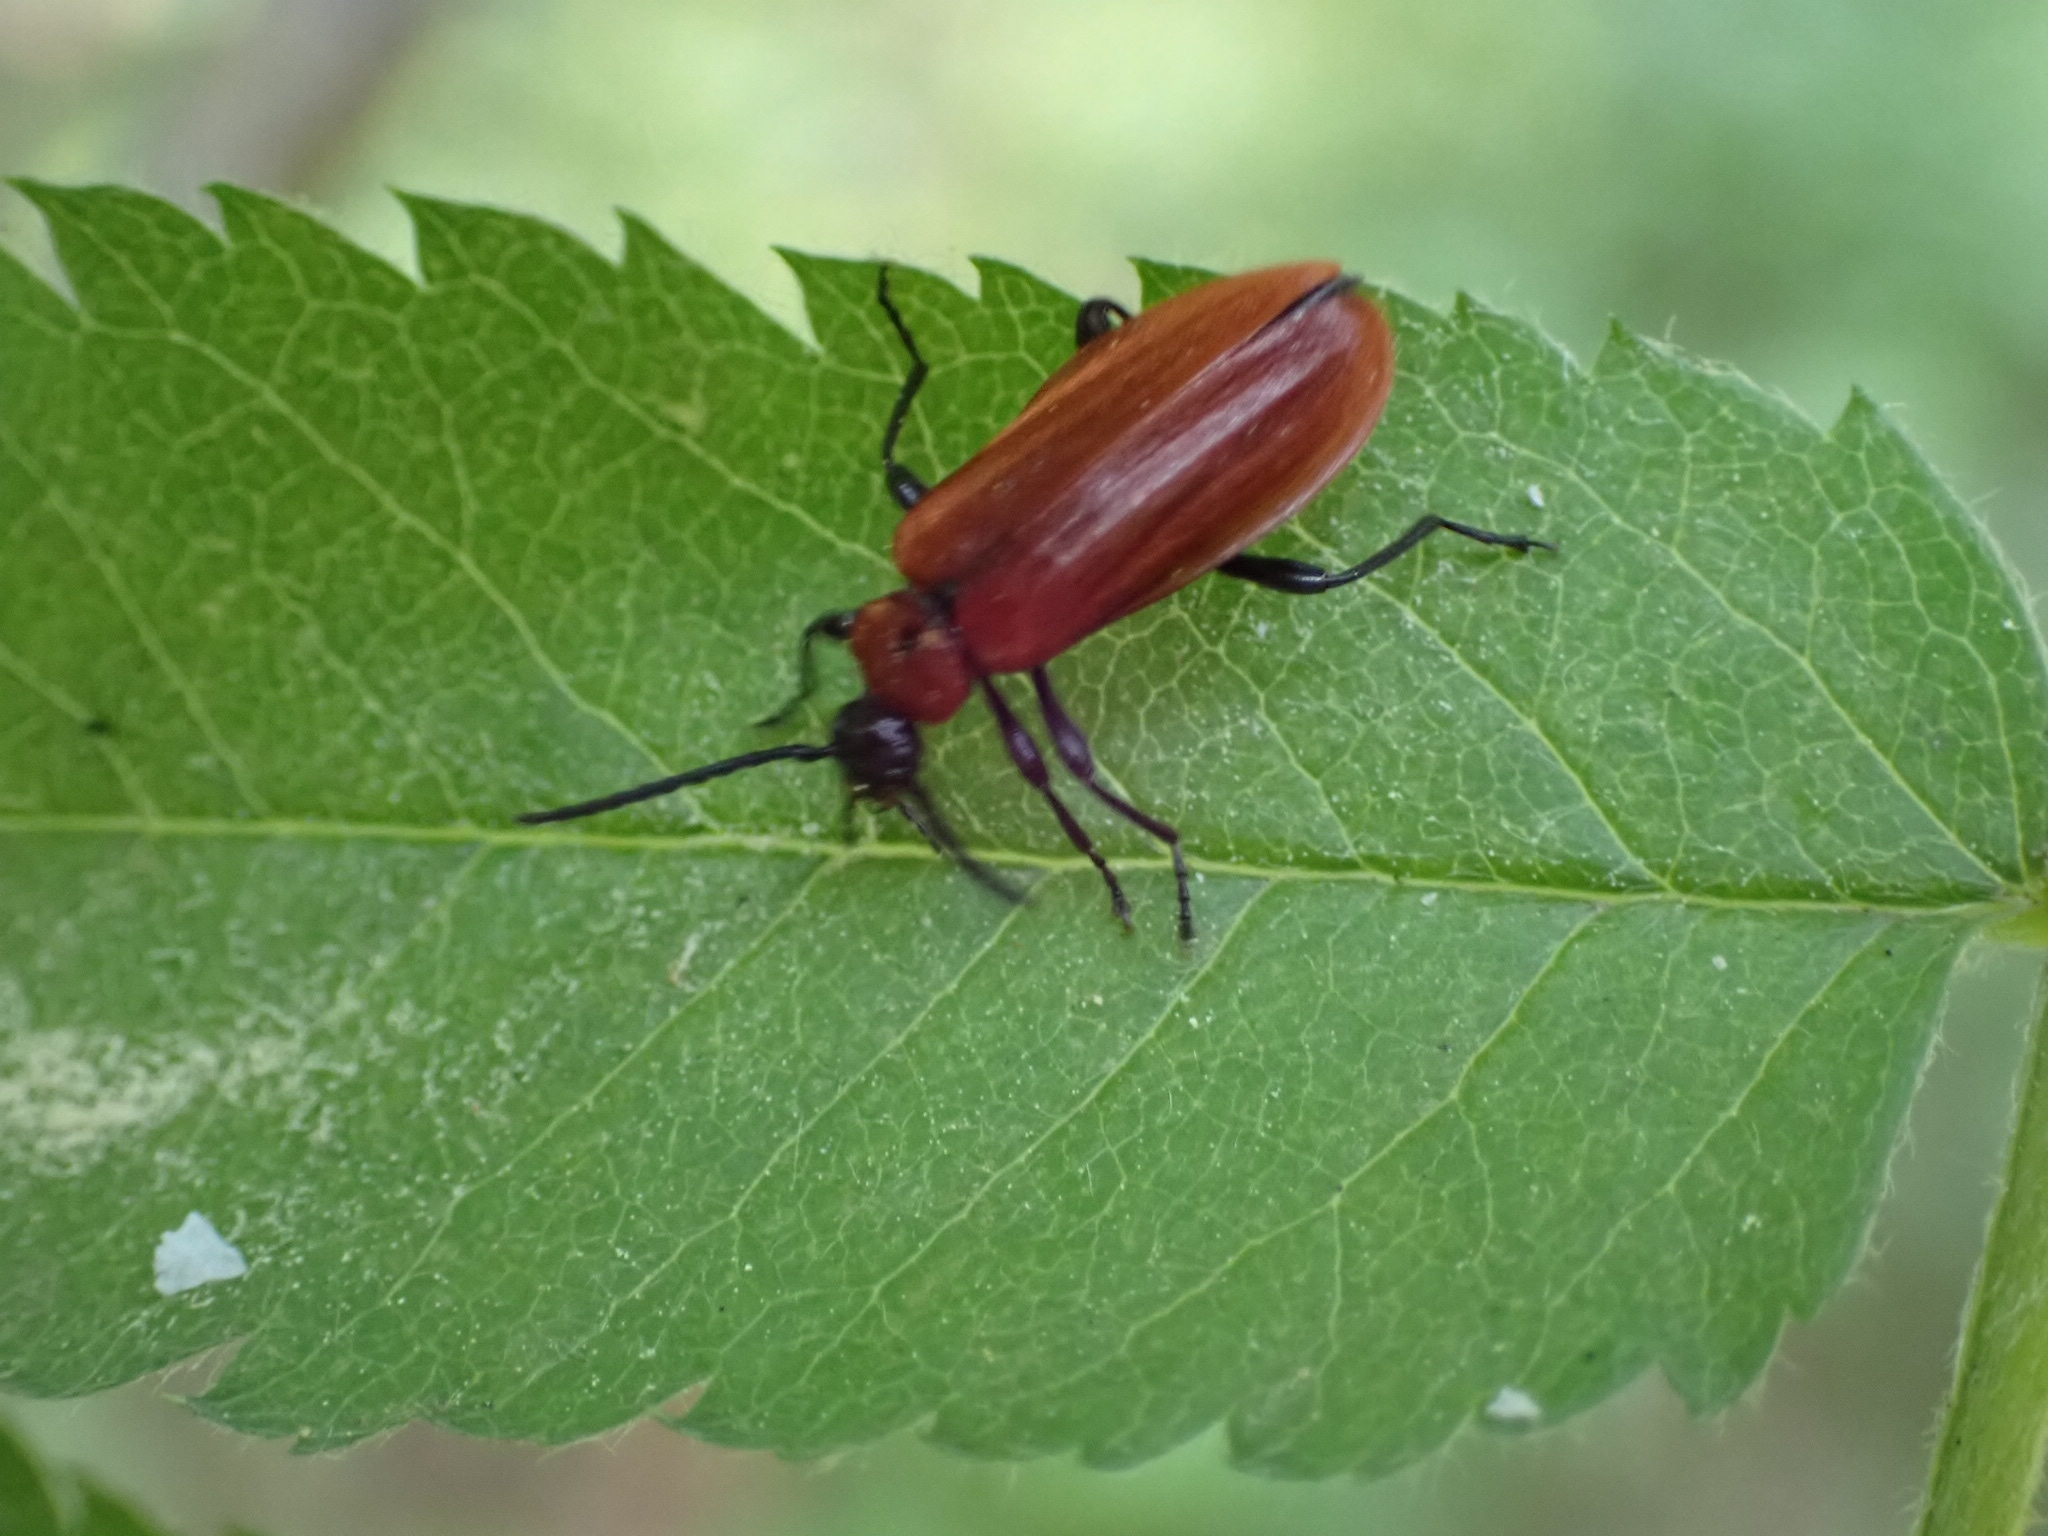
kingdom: Animalia
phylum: Arthropoda
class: Insecta
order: Coleoptera
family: Pyrochroidae
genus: Schizotus
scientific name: Schizotus pectinicornis
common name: Scarce cardinal beetle
